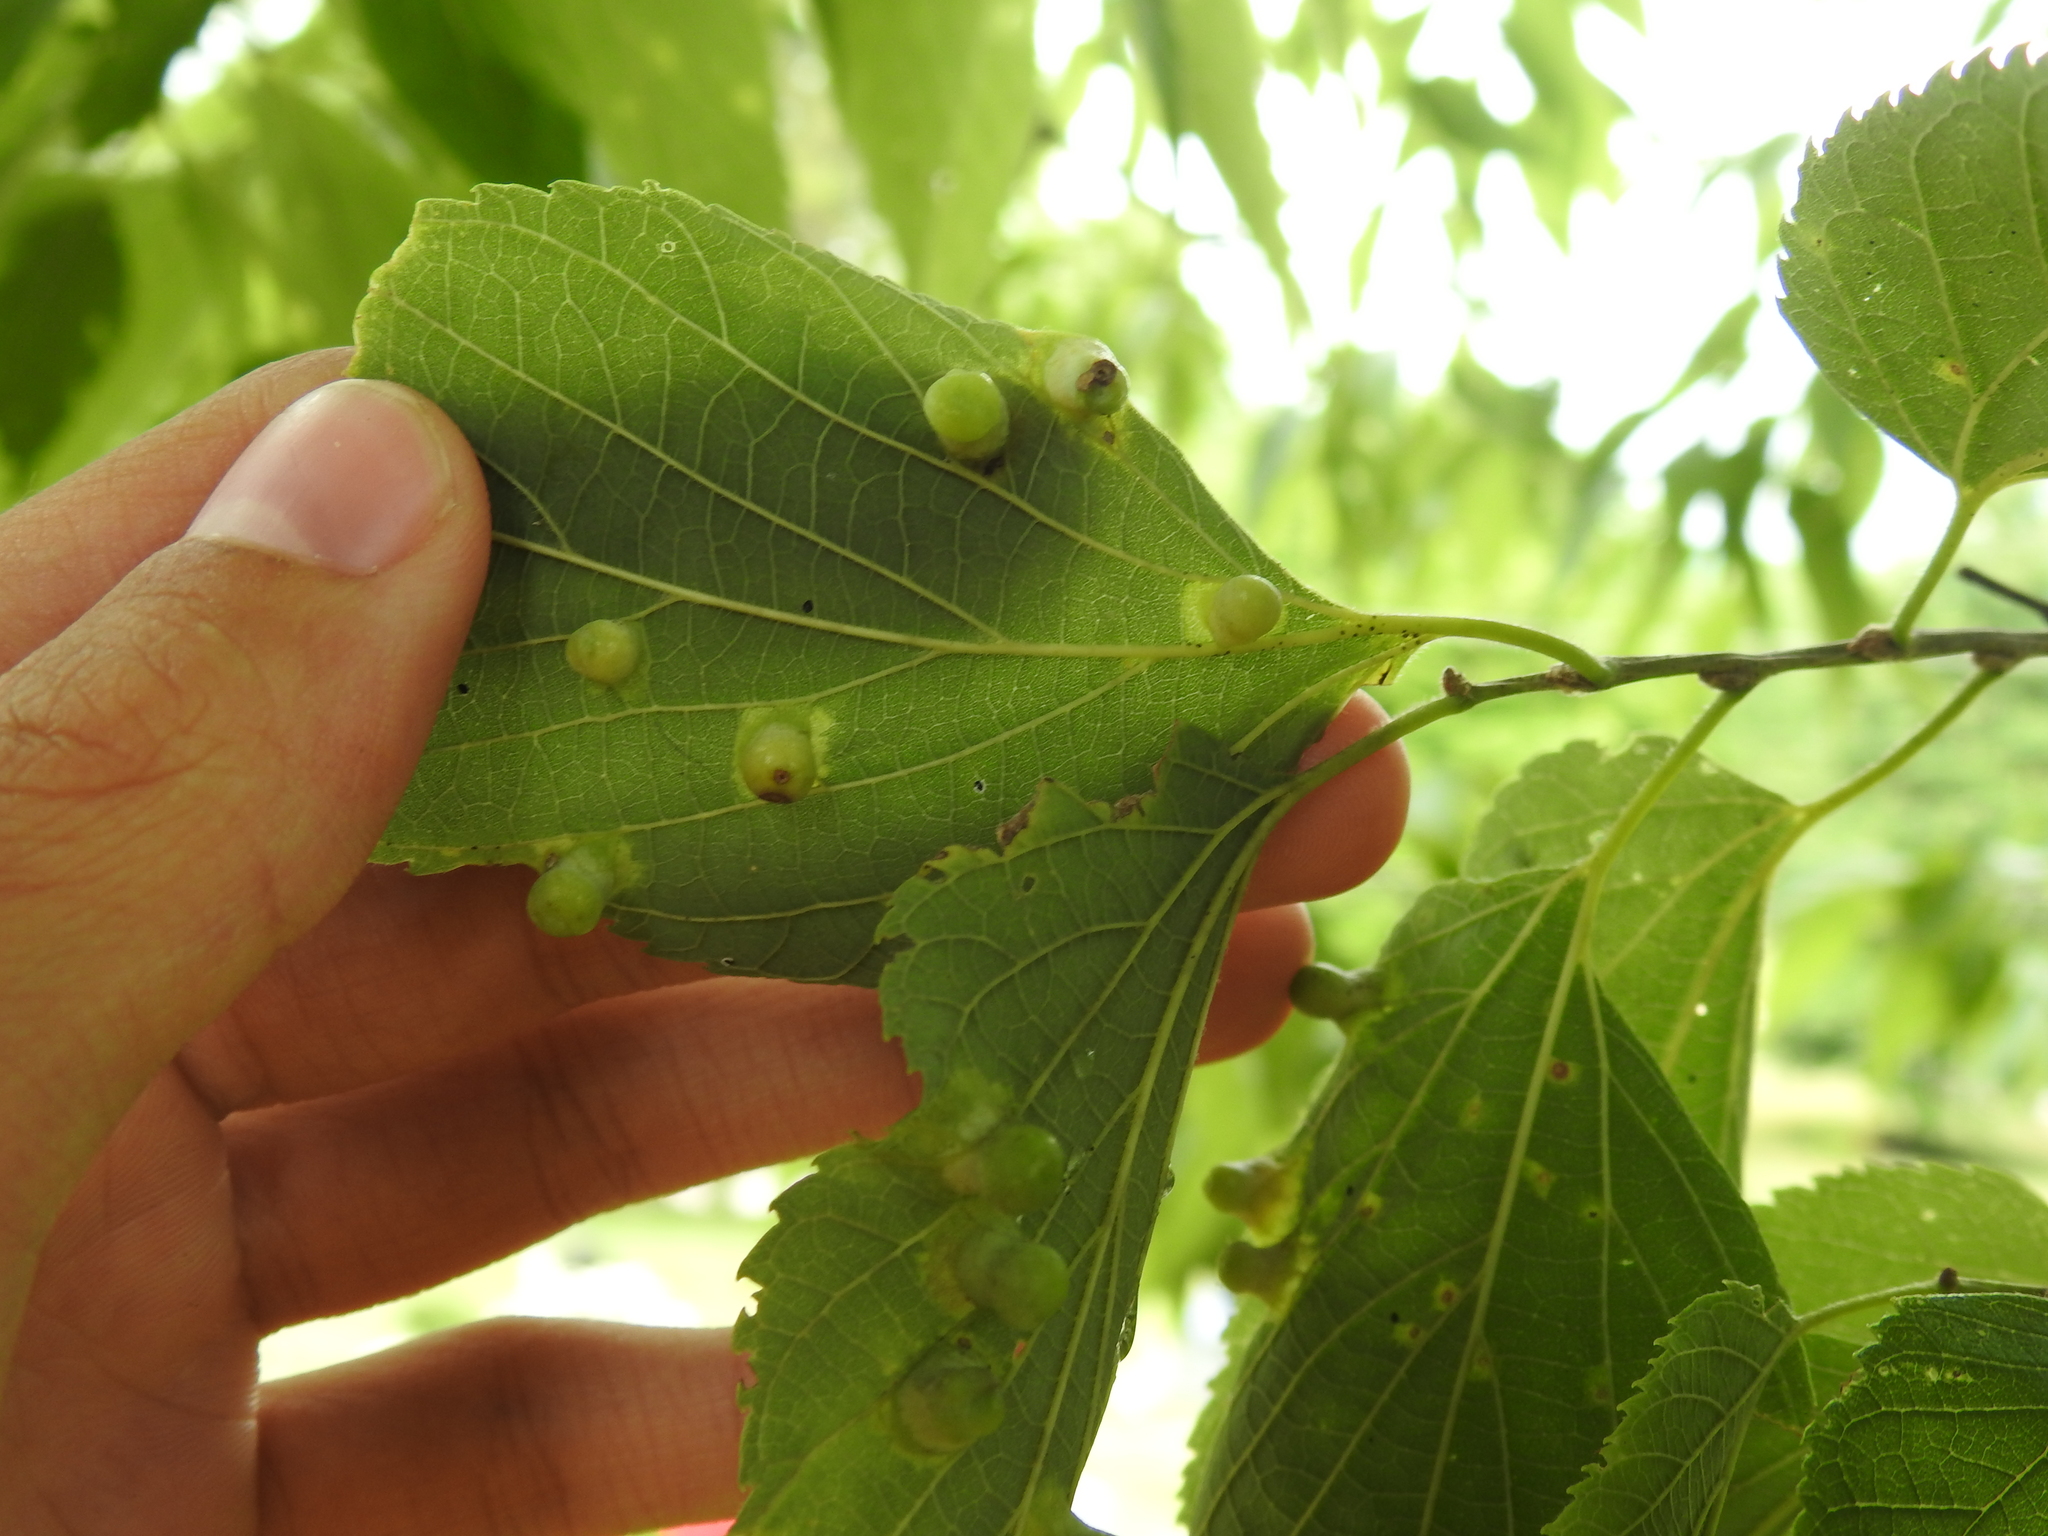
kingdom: Animalia
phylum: Arthropoda
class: Insecta
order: Hemiptera
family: Aphalaridae
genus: Pachypsylla
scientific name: Pachypsylla celtidismamma
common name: Hackberry nipplegall psyllid
